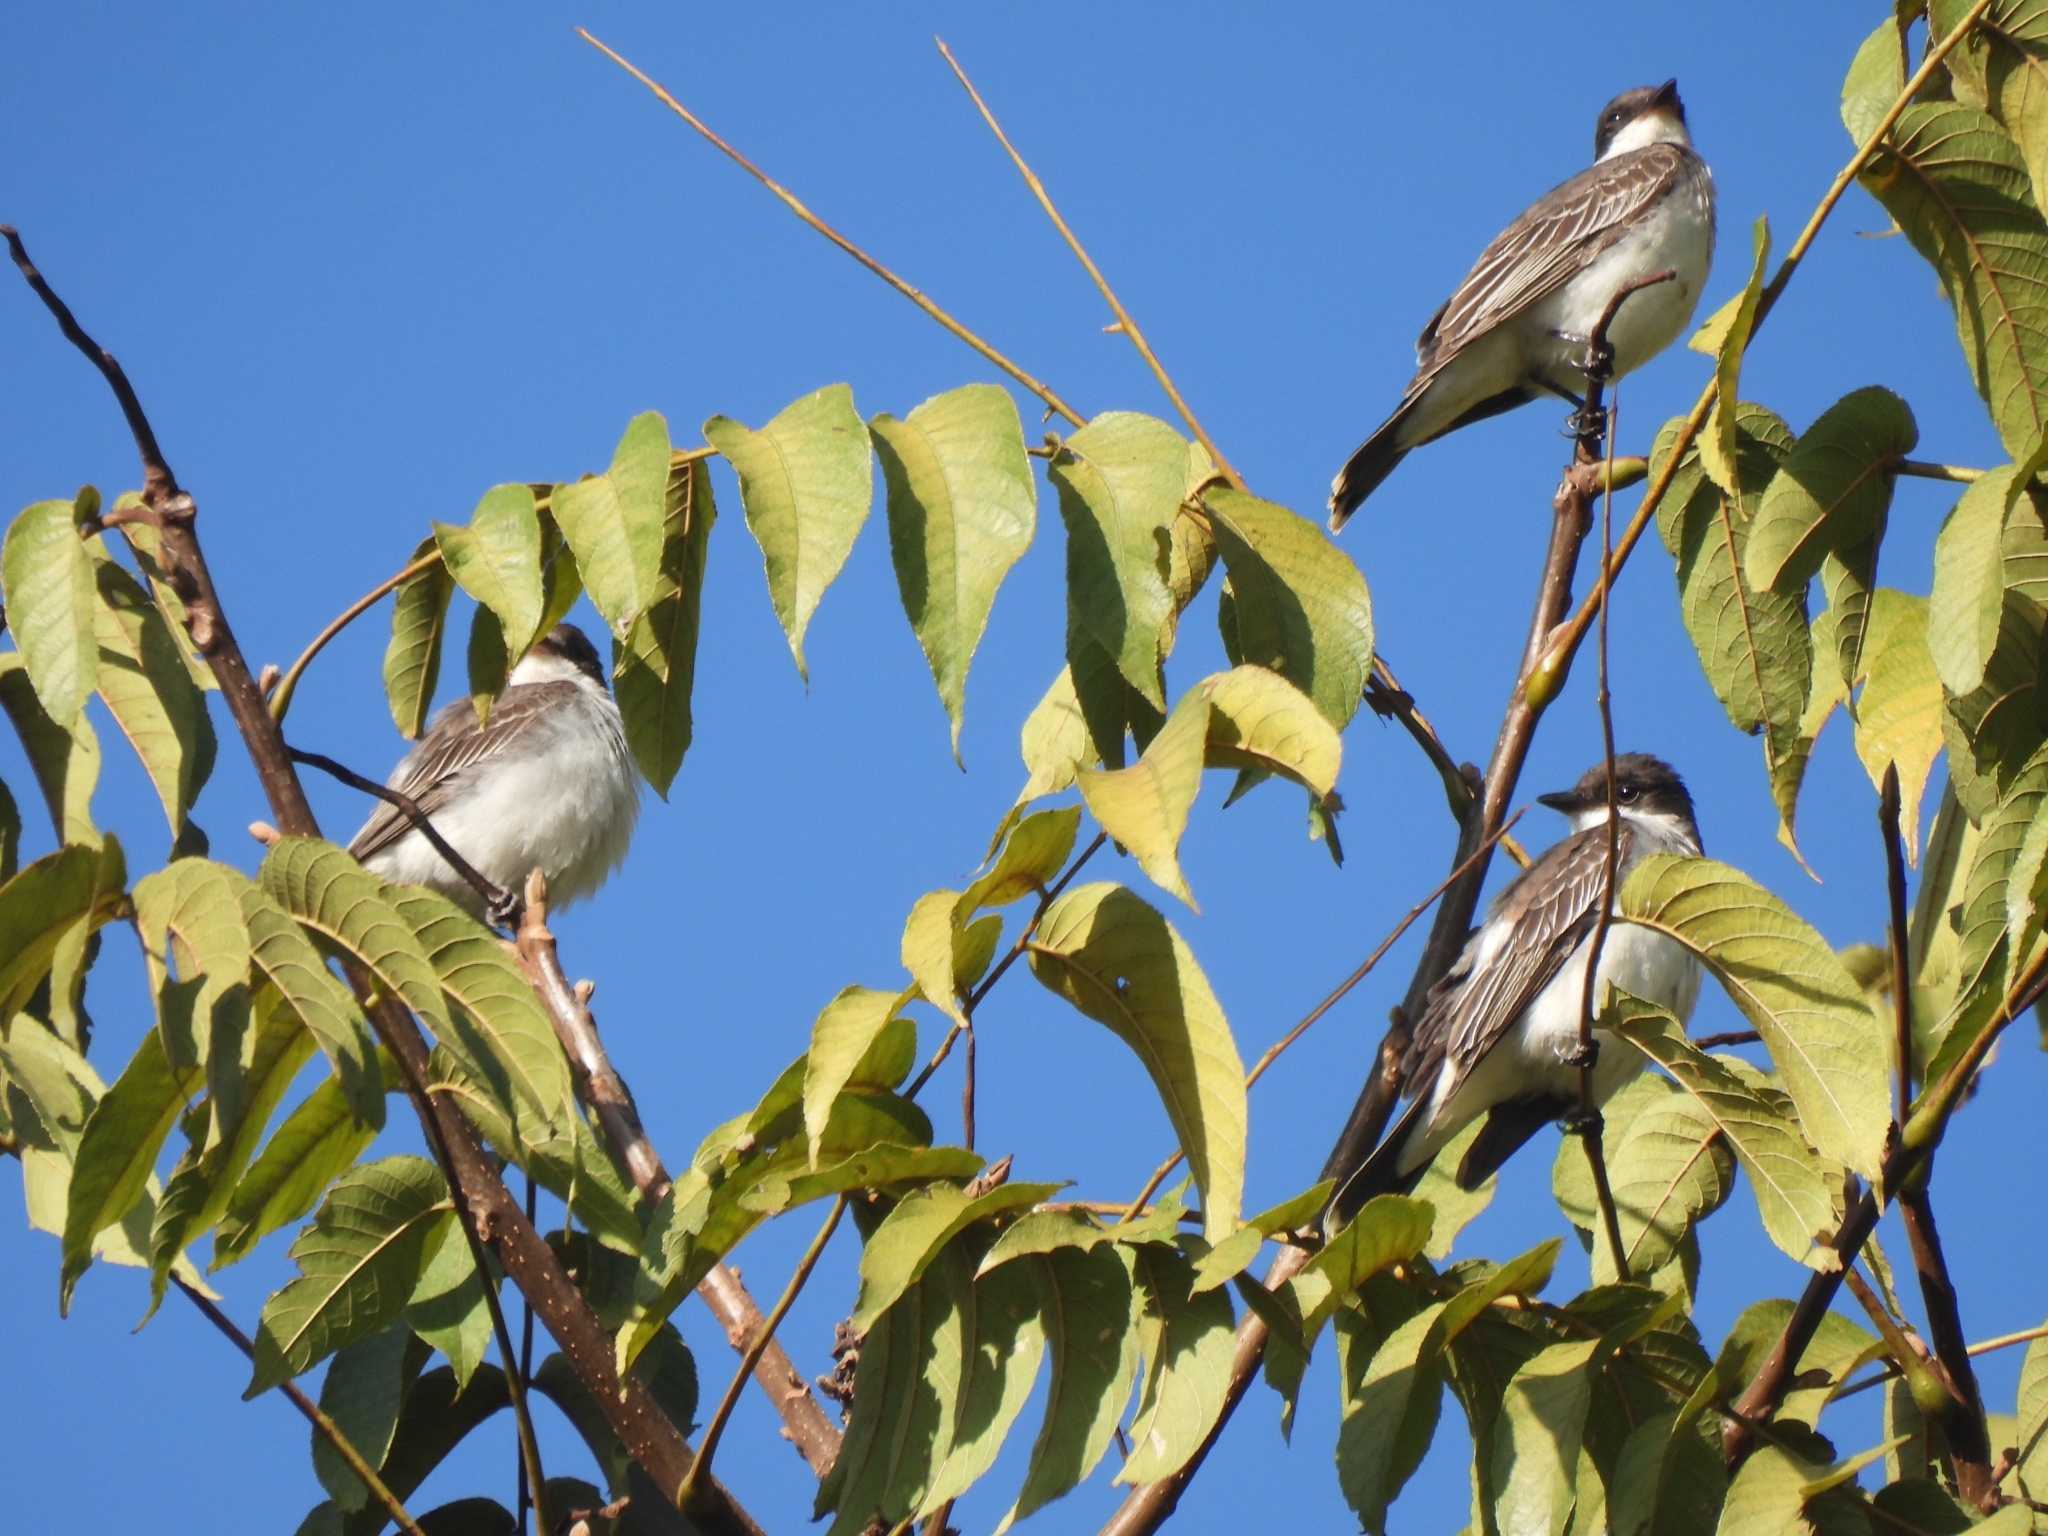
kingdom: Animalia
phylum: Chordata
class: Aves
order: Passeriformes
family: Tyrannidae
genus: Tyrannus
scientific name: Tyrannus tyrannus
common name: Eastern kingbird
